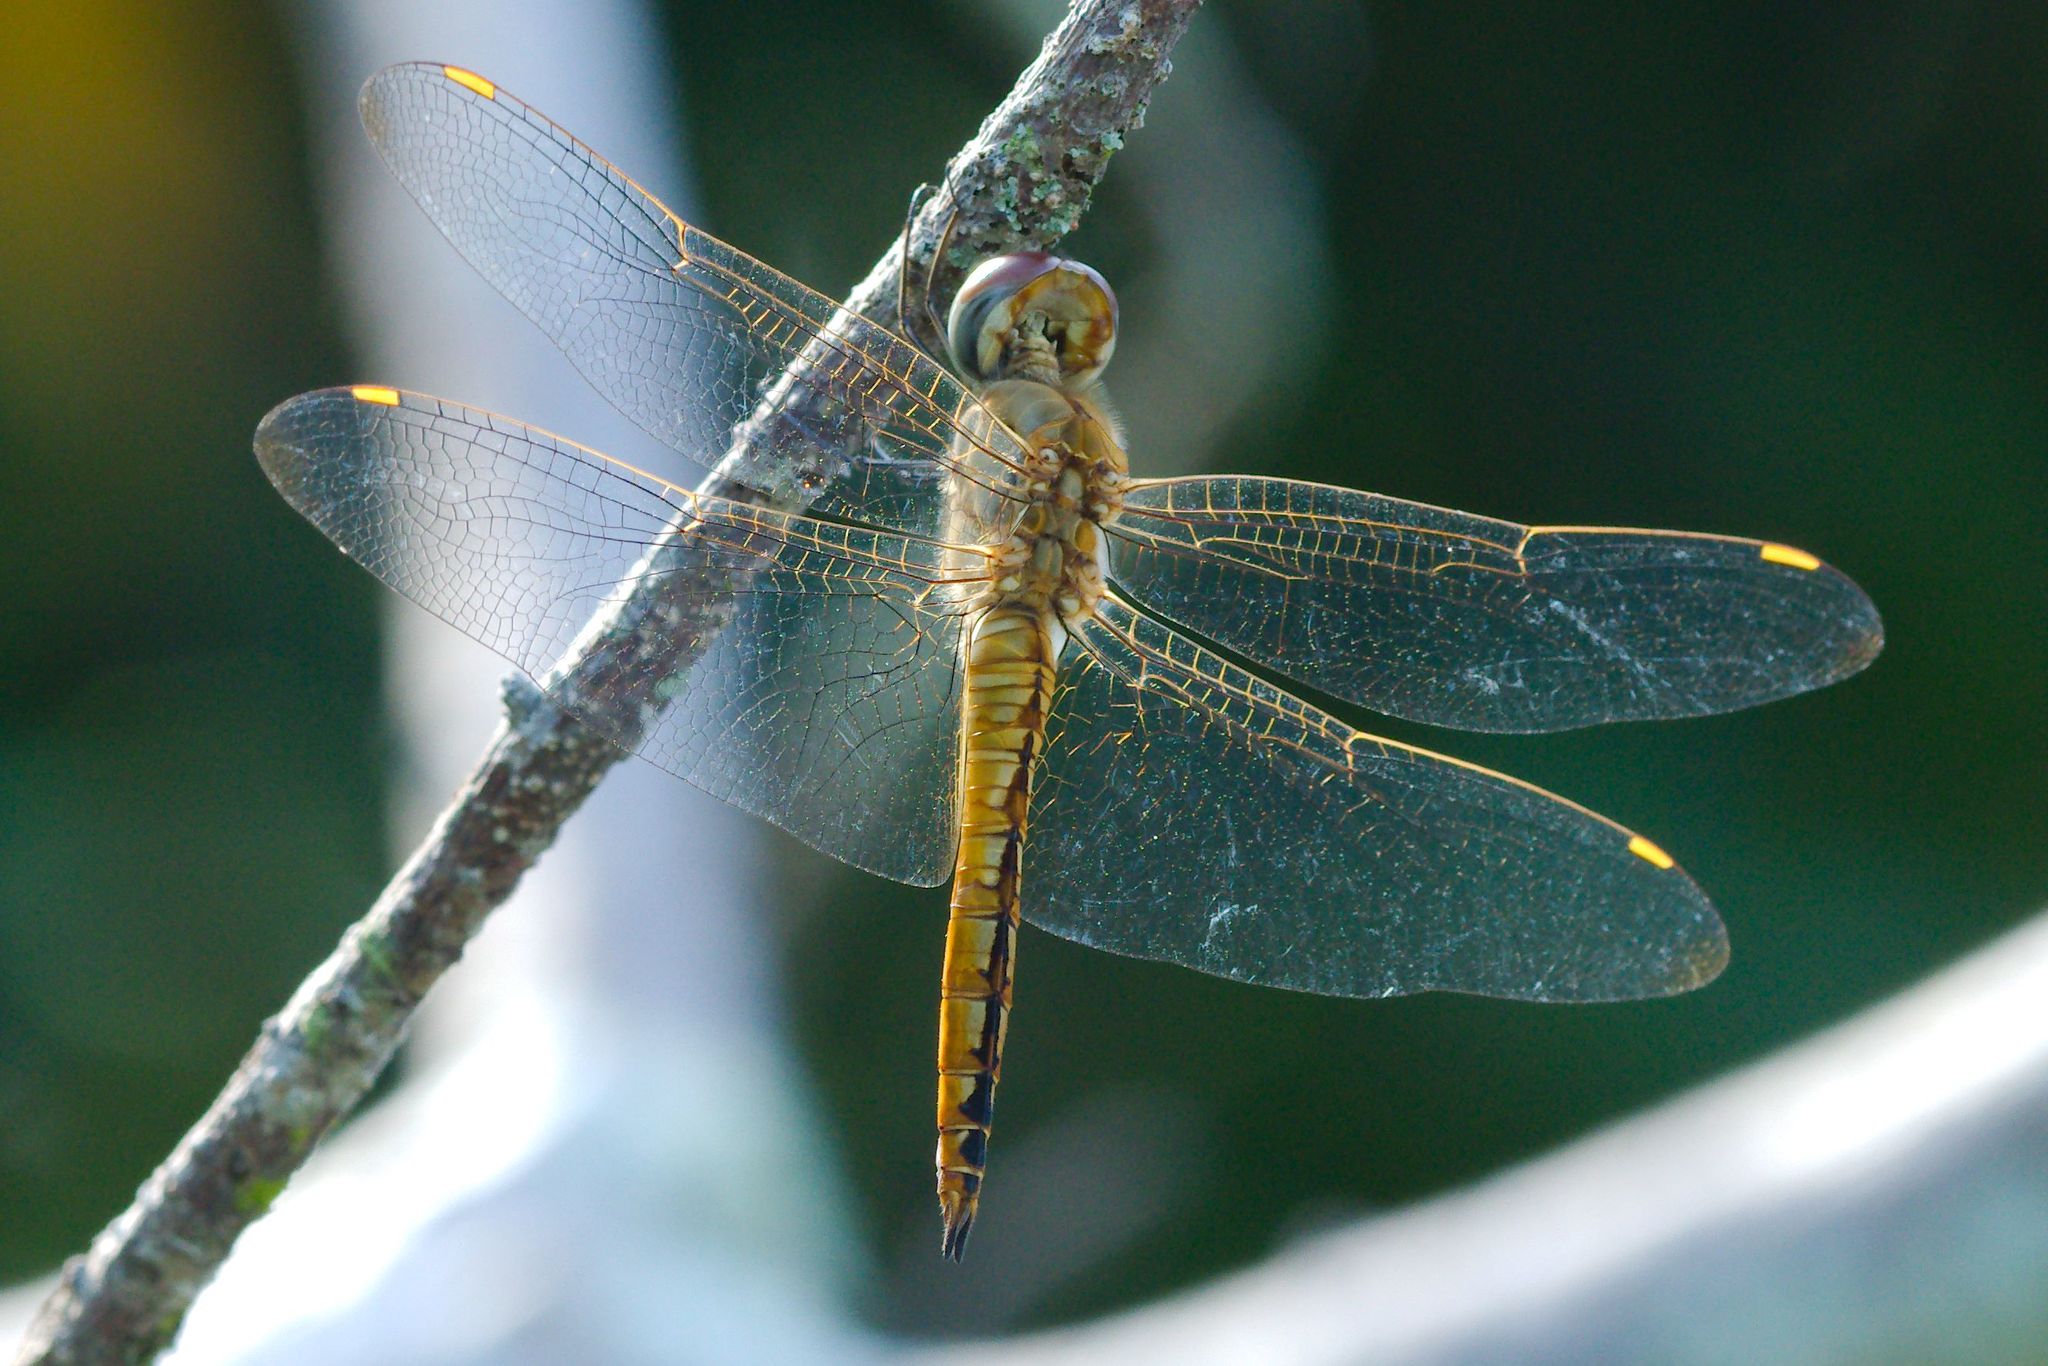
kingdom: Animalia
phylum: Arthropoda
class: Insecta
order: Odonata
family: Libellulidae
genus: Pantala
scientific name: Pantala flavescens
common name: Wandering glider
